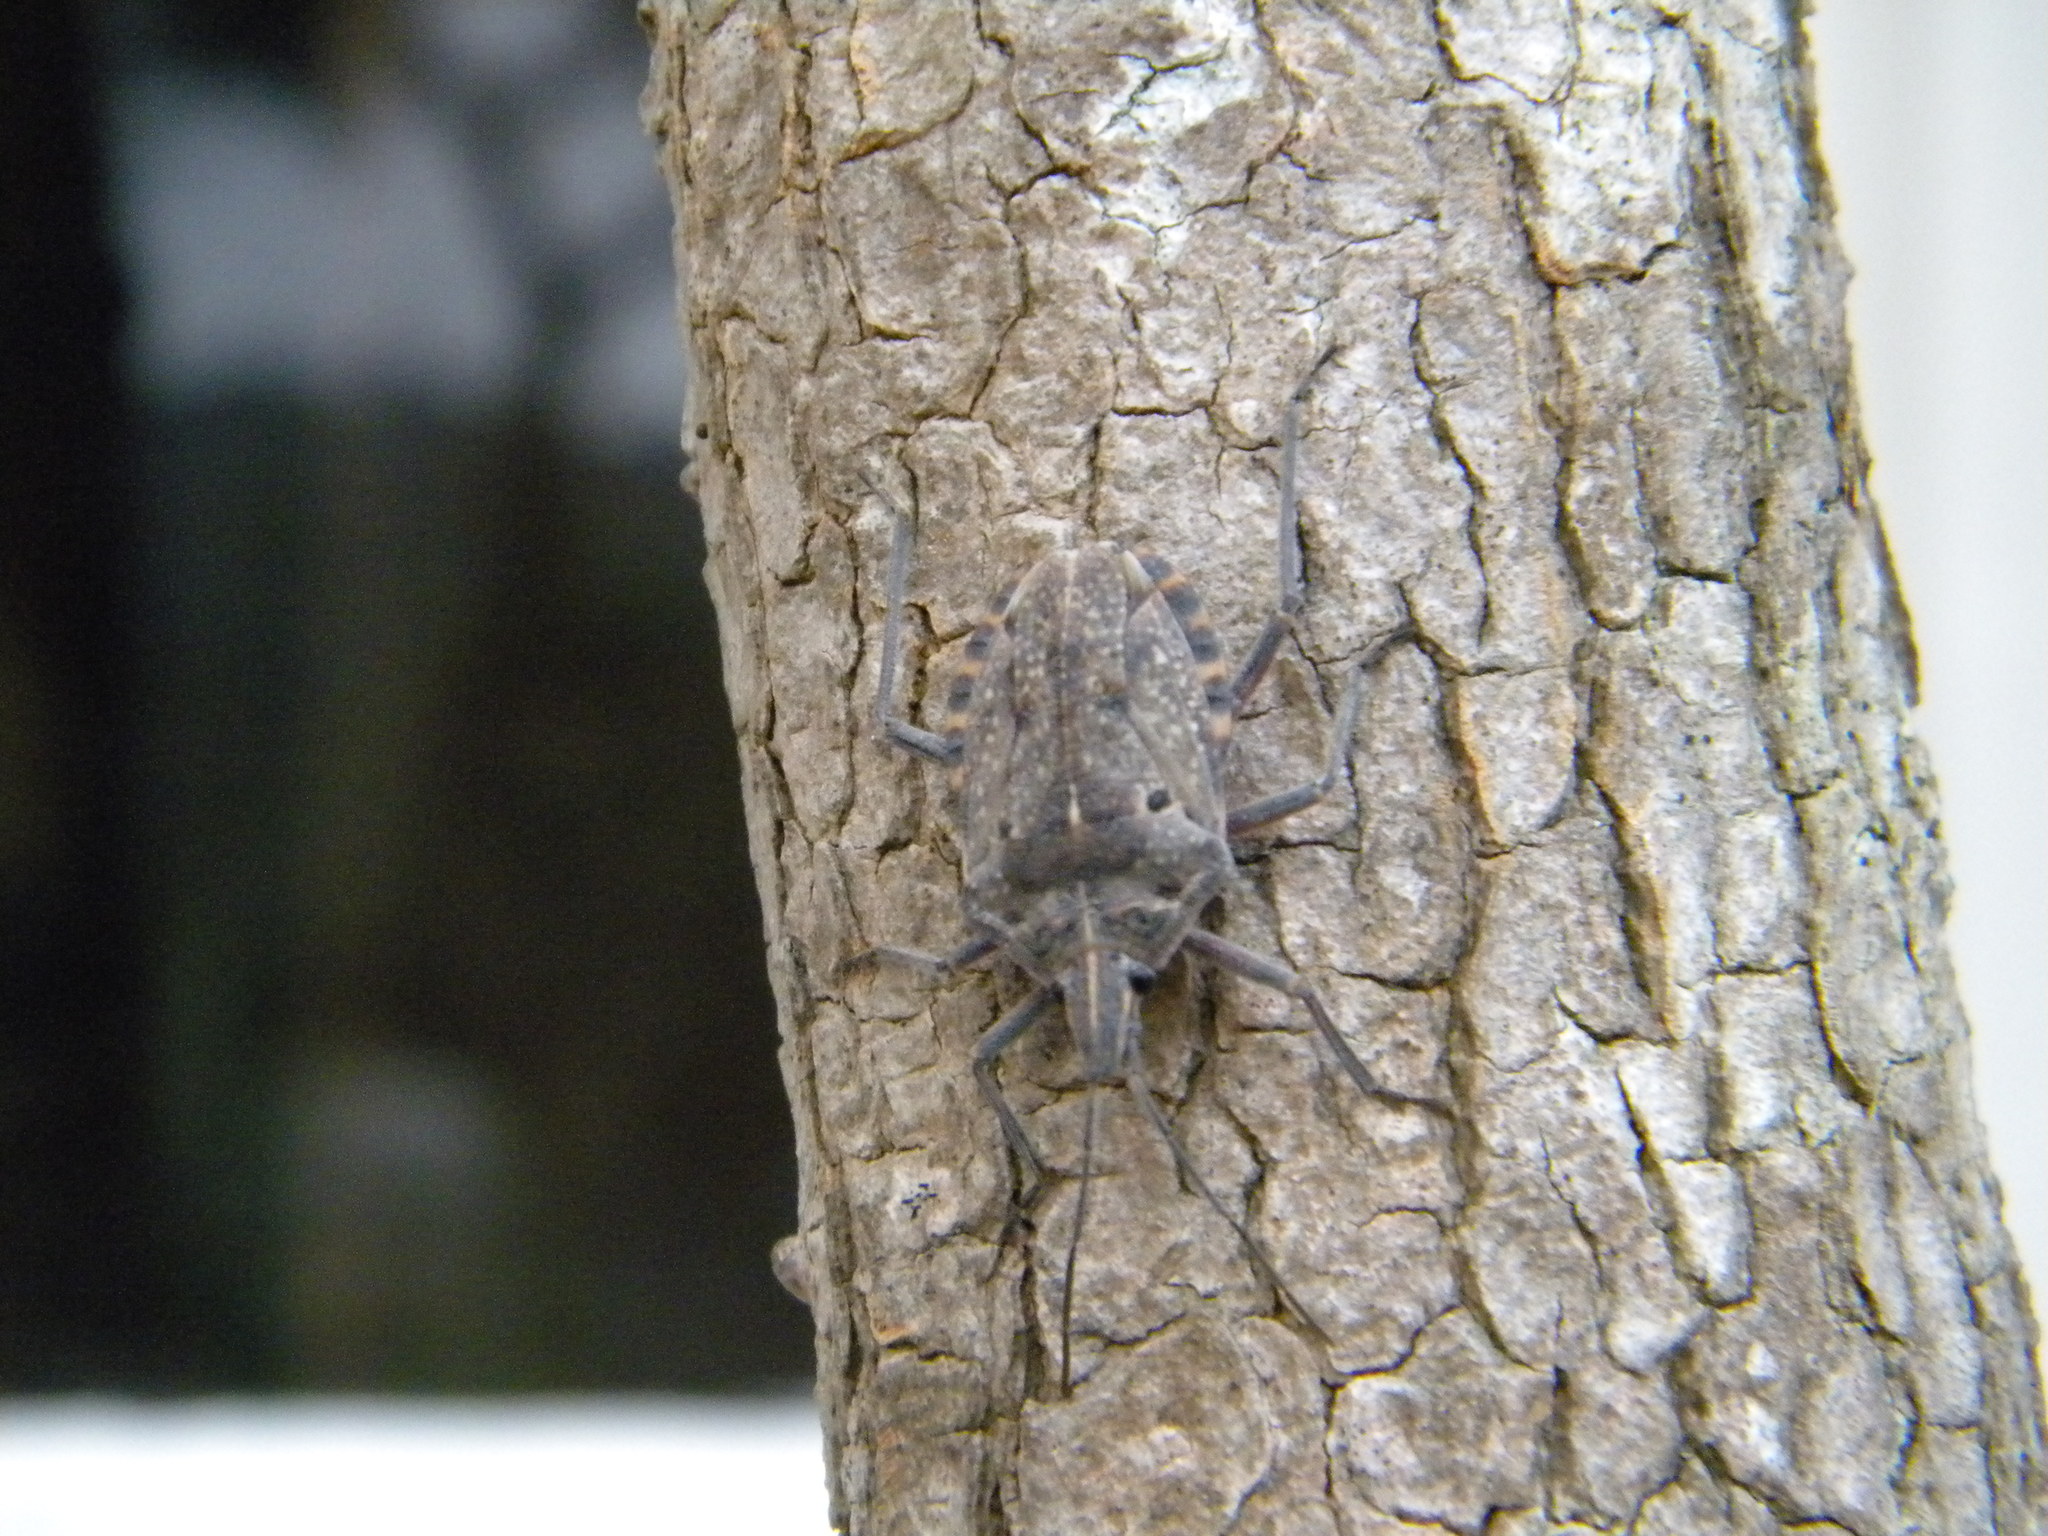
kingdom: Animalia
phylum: Arthropoda
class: Insecta
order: Hemiptera
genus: Peltasticus
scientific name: Peltasticus
